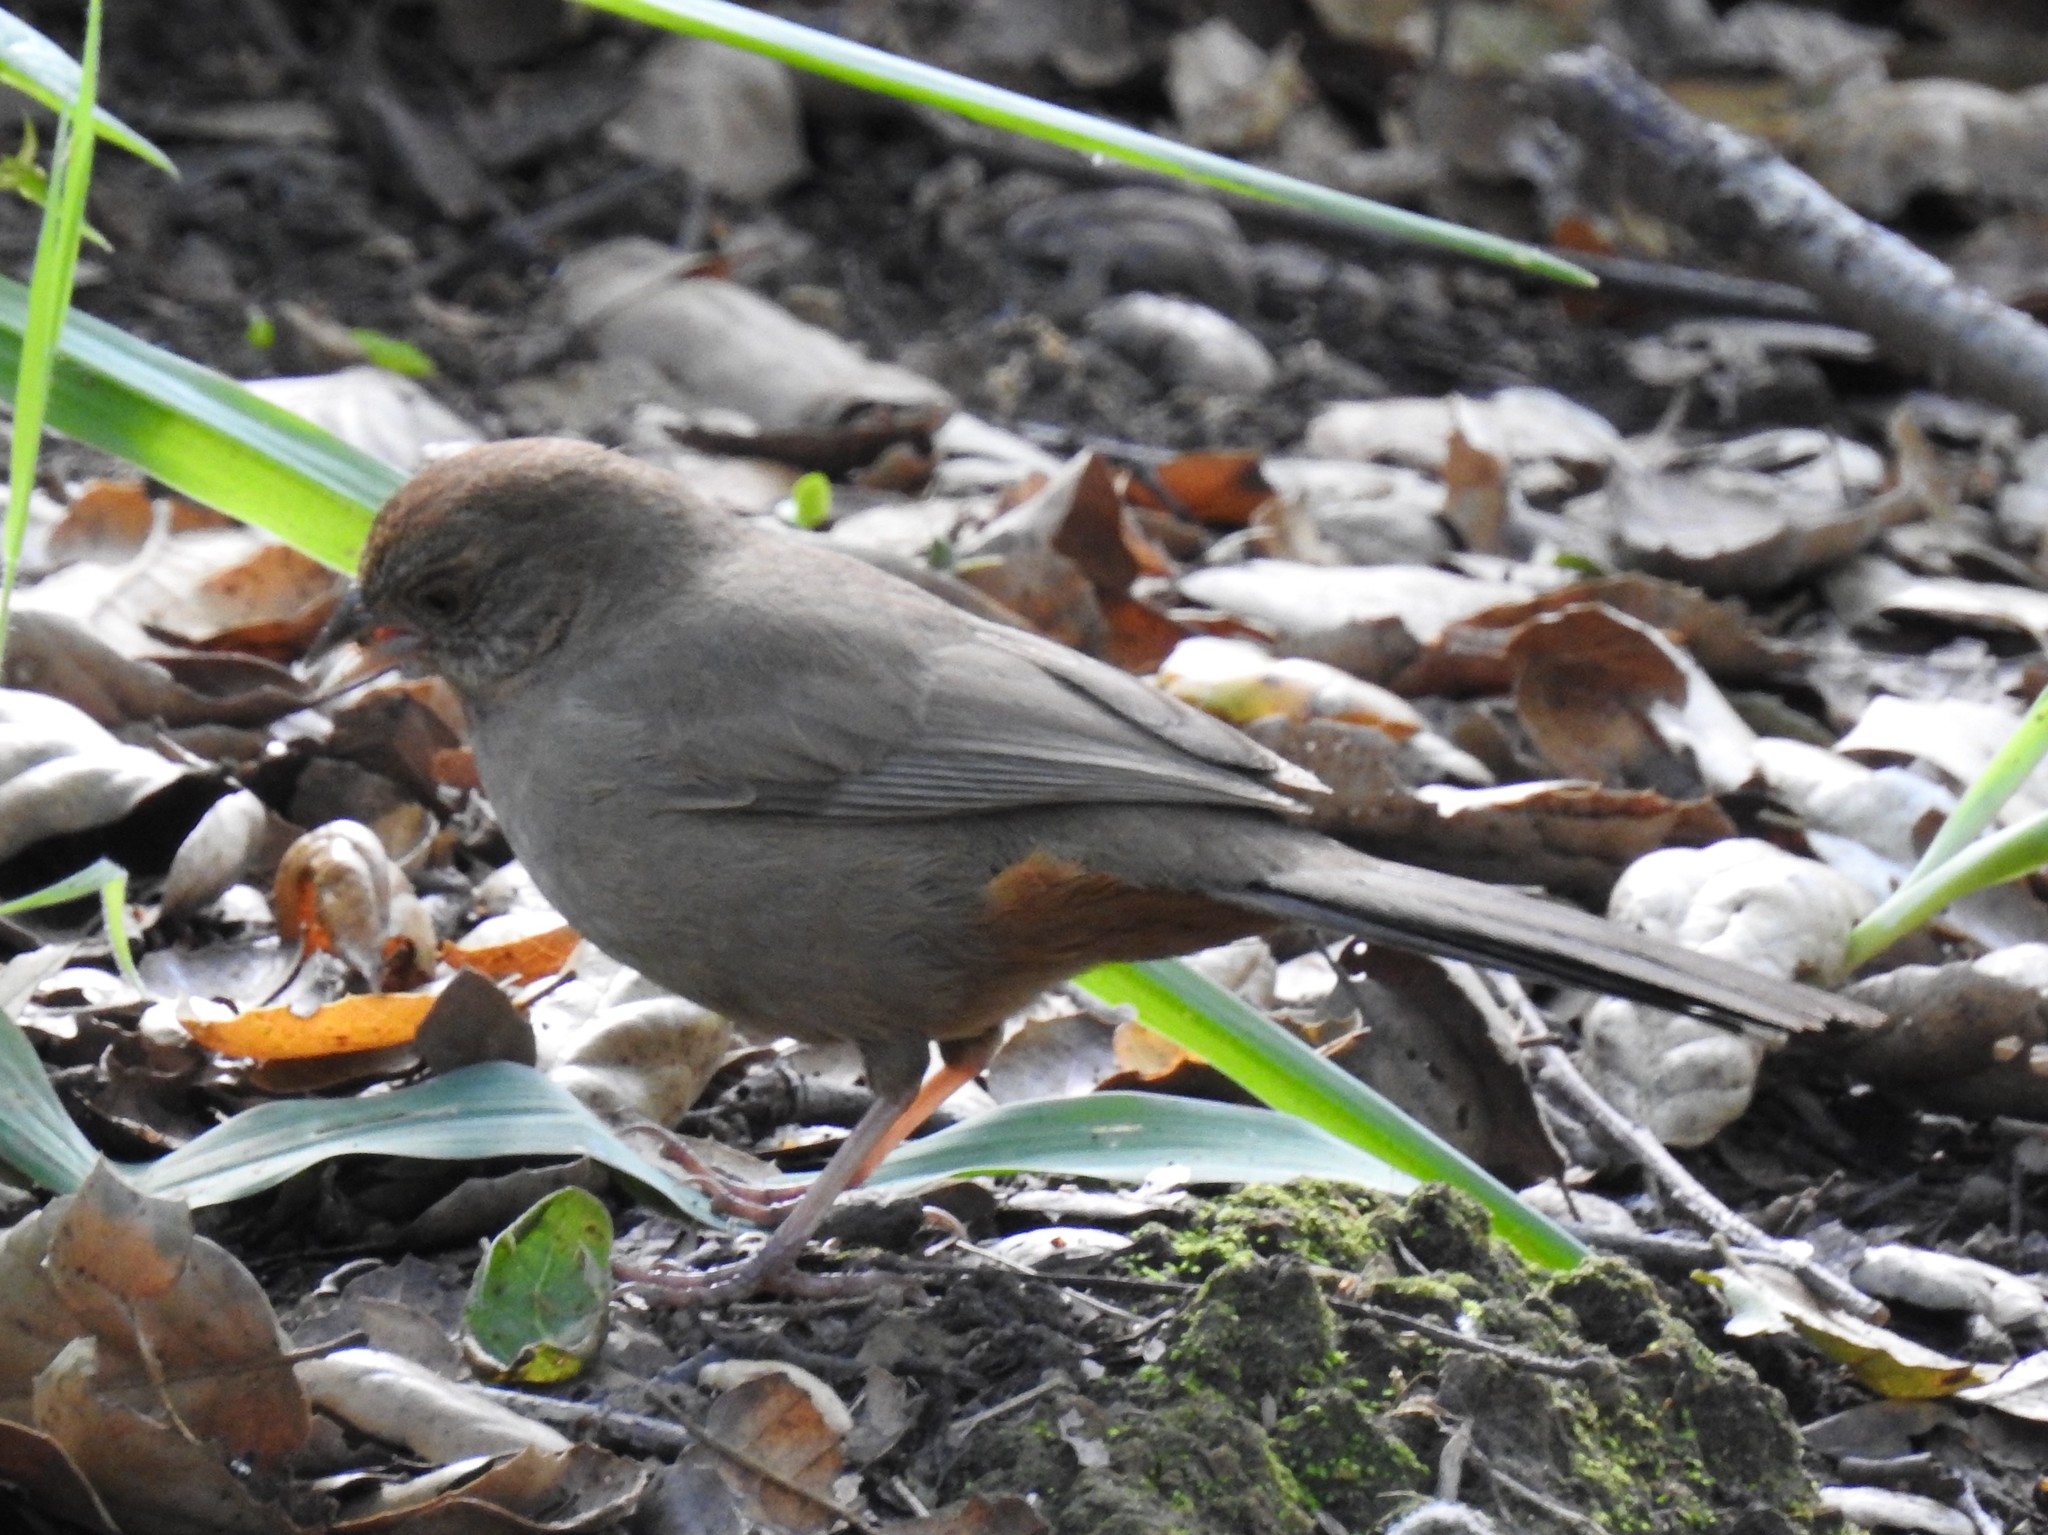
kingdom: Animalia
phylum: Chordata
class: Aves
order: Passeriformes
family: Passerellidae
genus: Melozone
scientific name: Melozone crissalis
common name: California towhee
